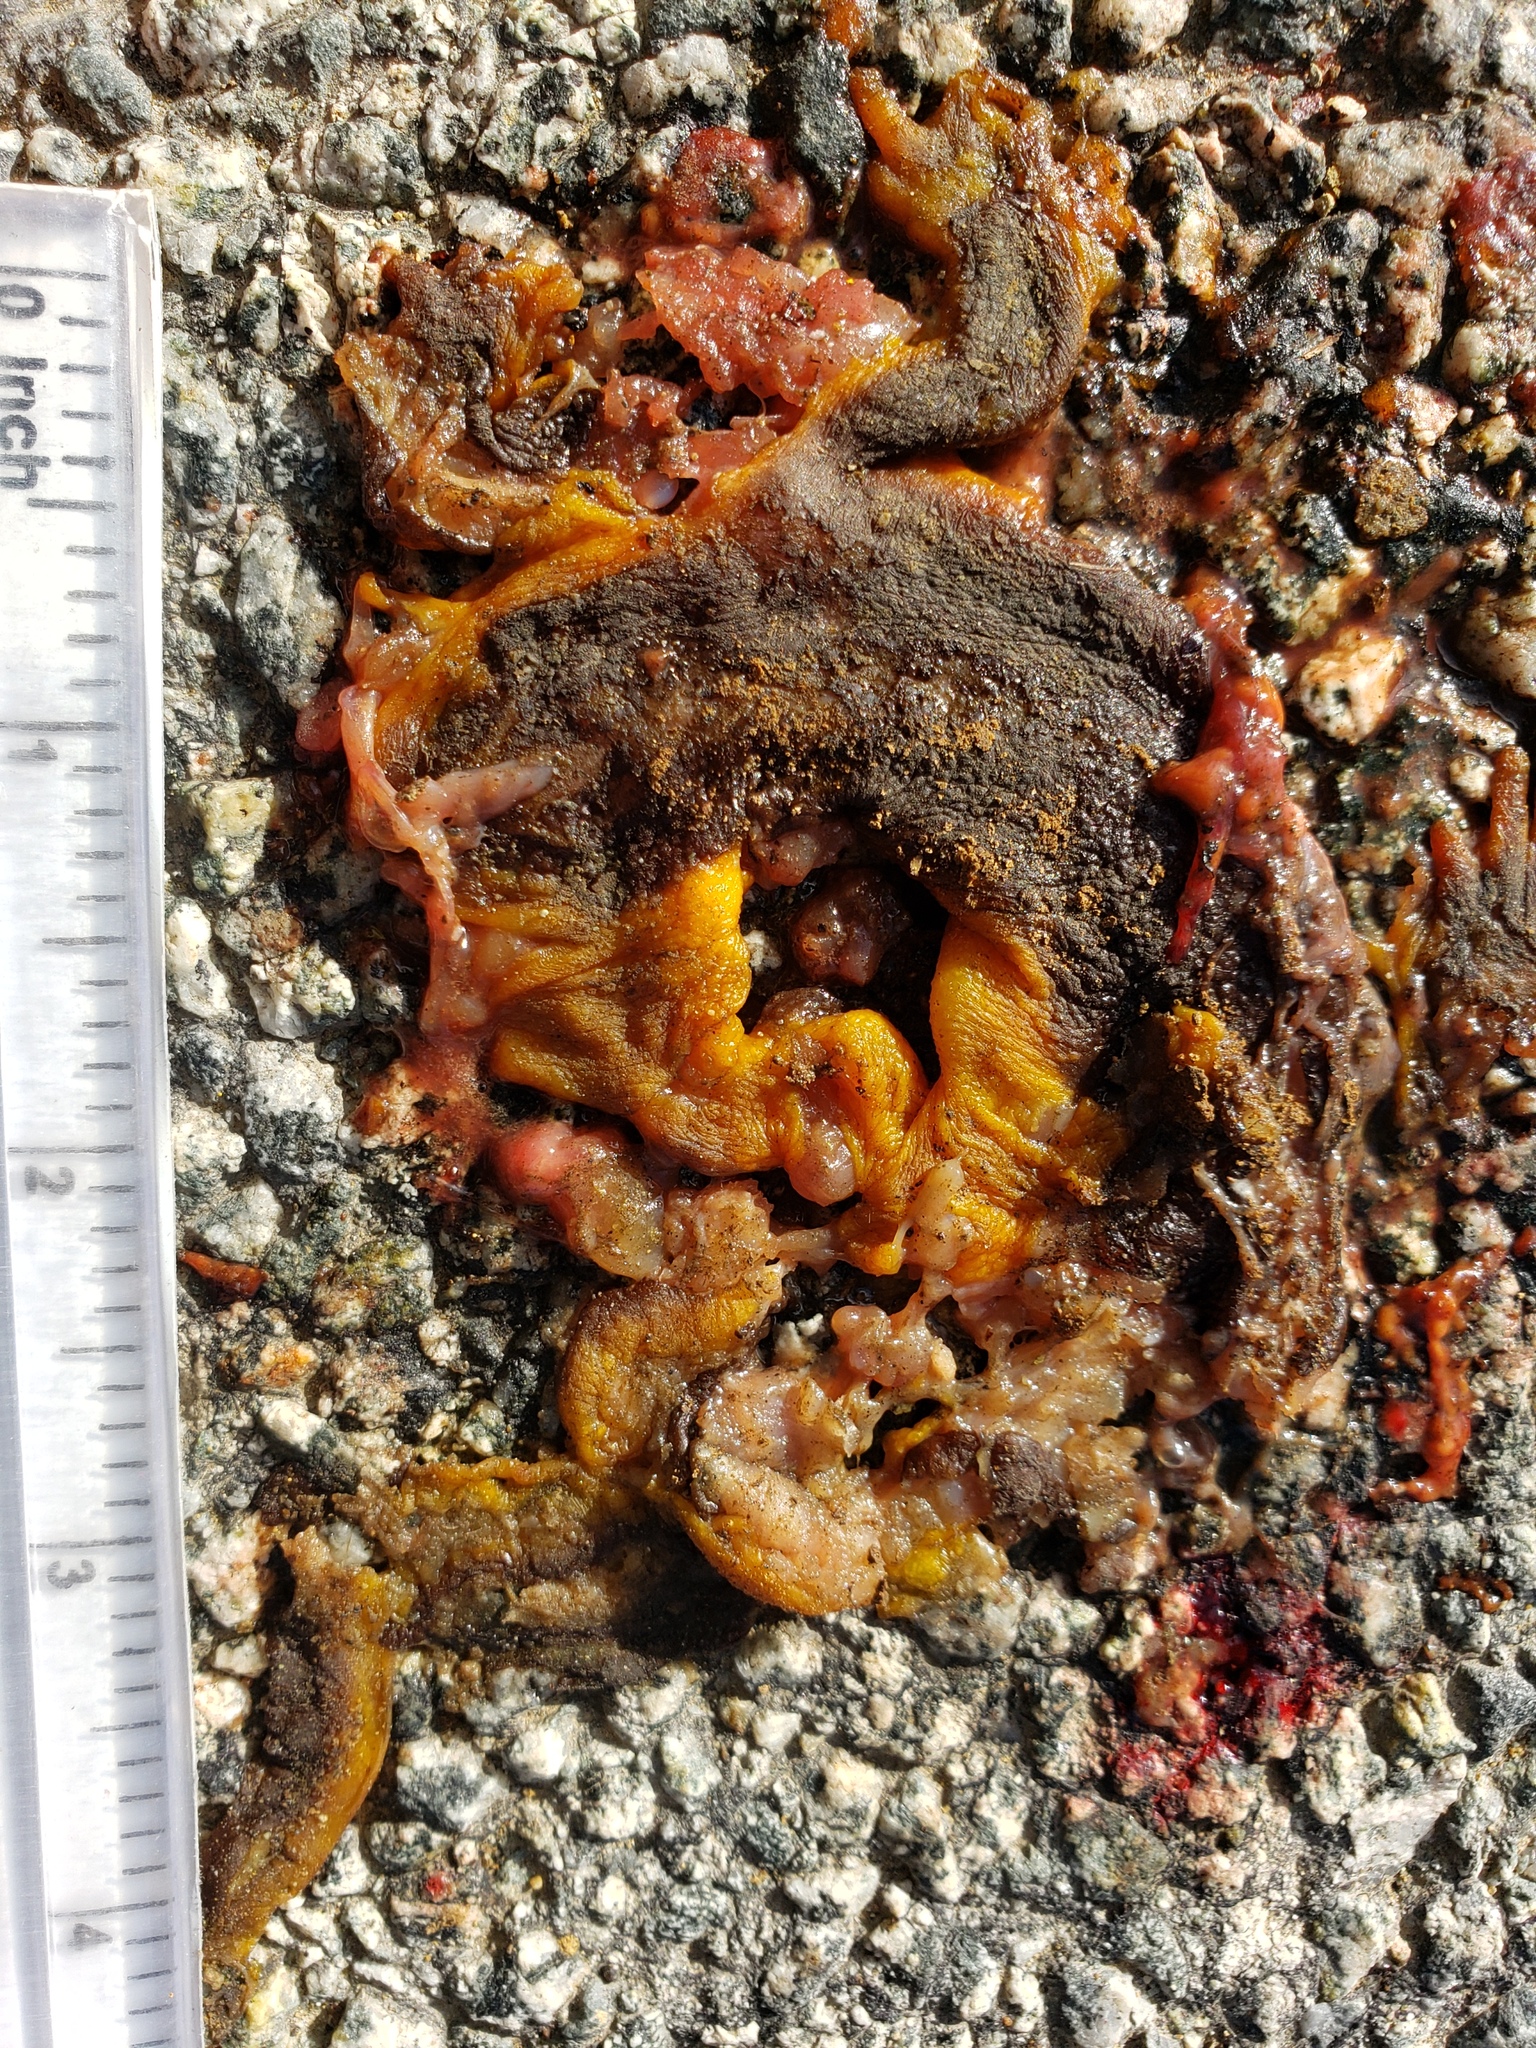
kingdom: Animalia
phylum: Chordata
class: Amphibia
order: Caudata
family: Salamandridae
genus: Taricha
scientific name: Taricha
